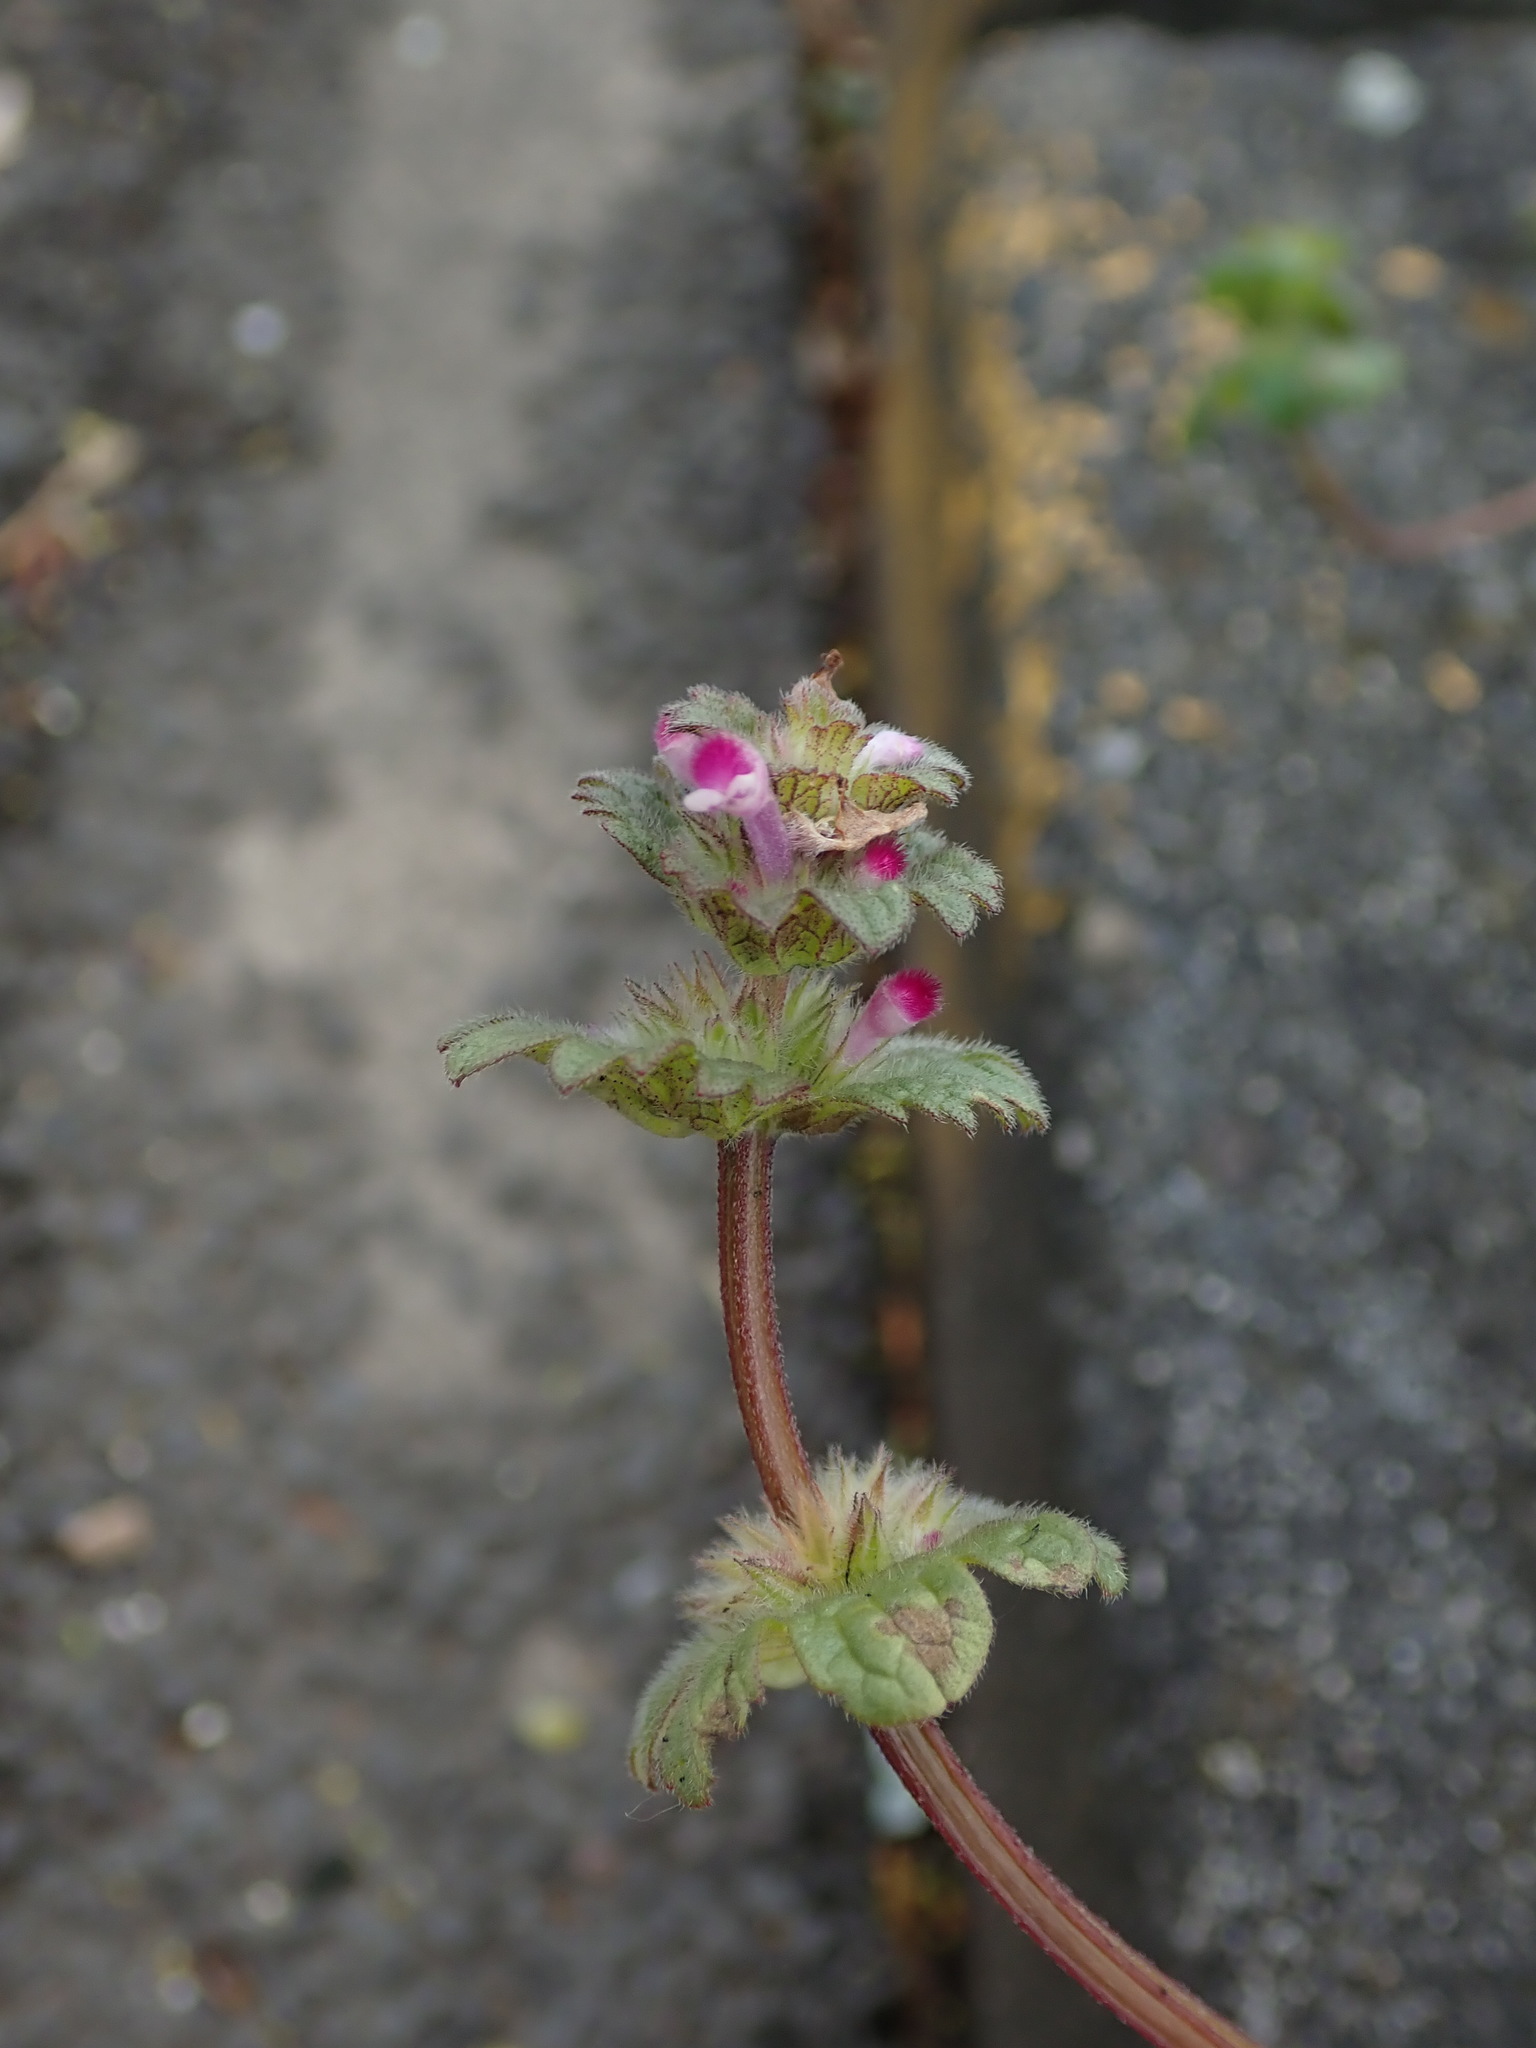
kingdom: Plantae
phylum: Tracheophyta
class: Magnoliopsida
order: Lamiales
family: Lamiaceae
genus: Lamium
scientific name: Lamium amplexicaule
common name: Henbit dead-nettle
